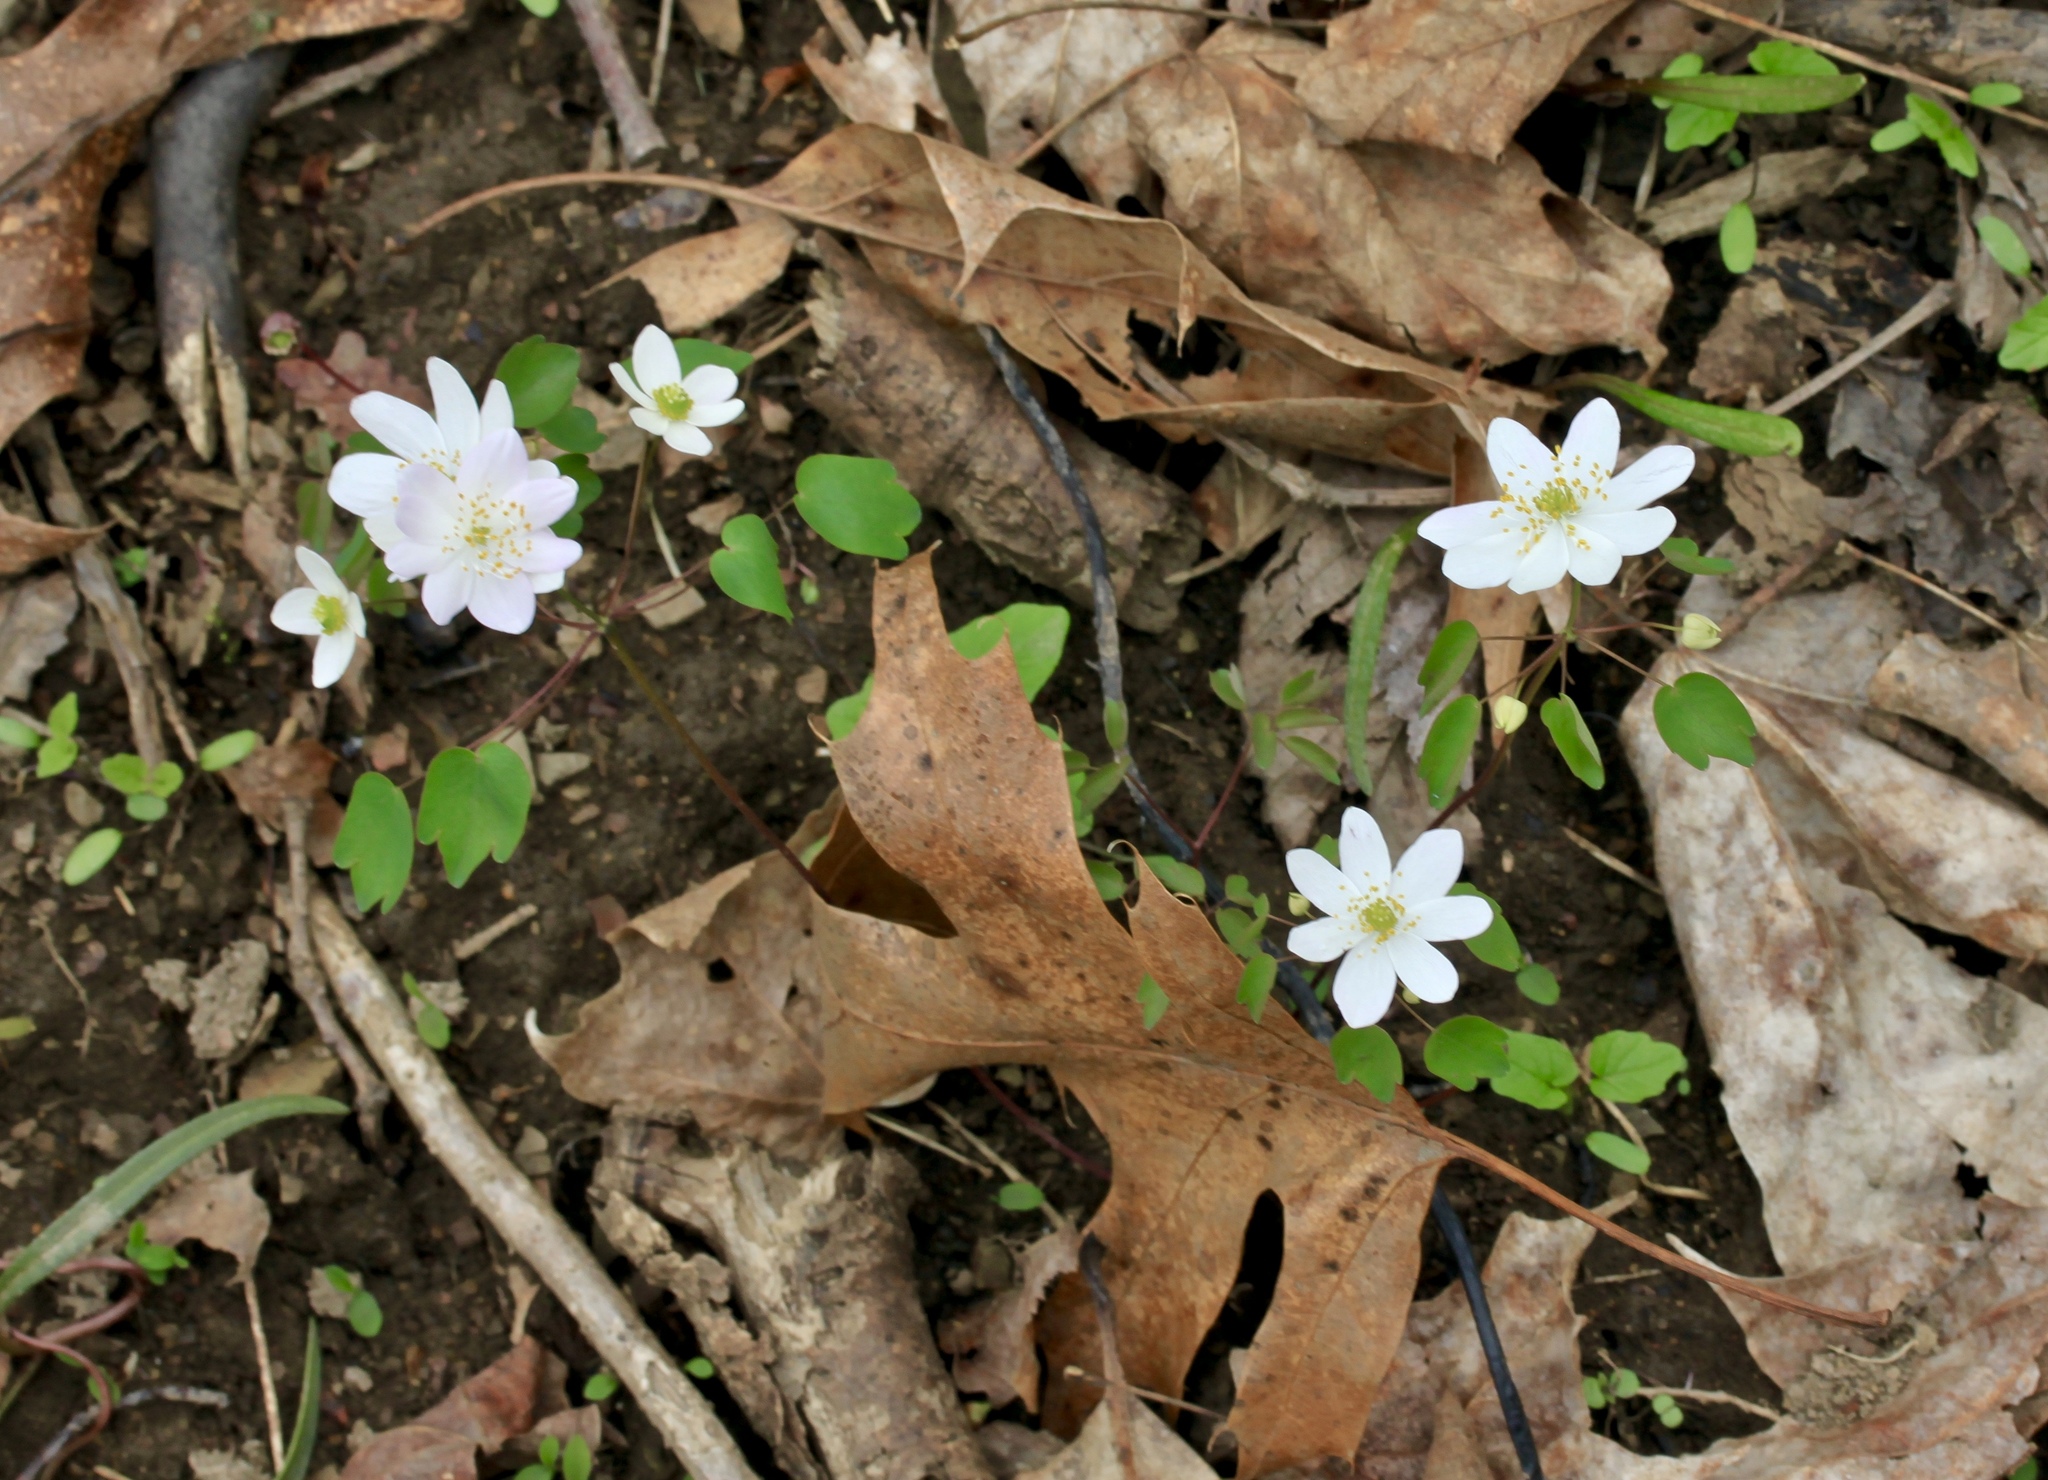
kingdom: Plantae
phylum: Tracheophyta
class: Magnoliopsida
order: Ranunculales
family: Ranunculaceae
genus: Thalictrum
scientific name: Thalictrum thalictroides
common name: Rue-anemone
